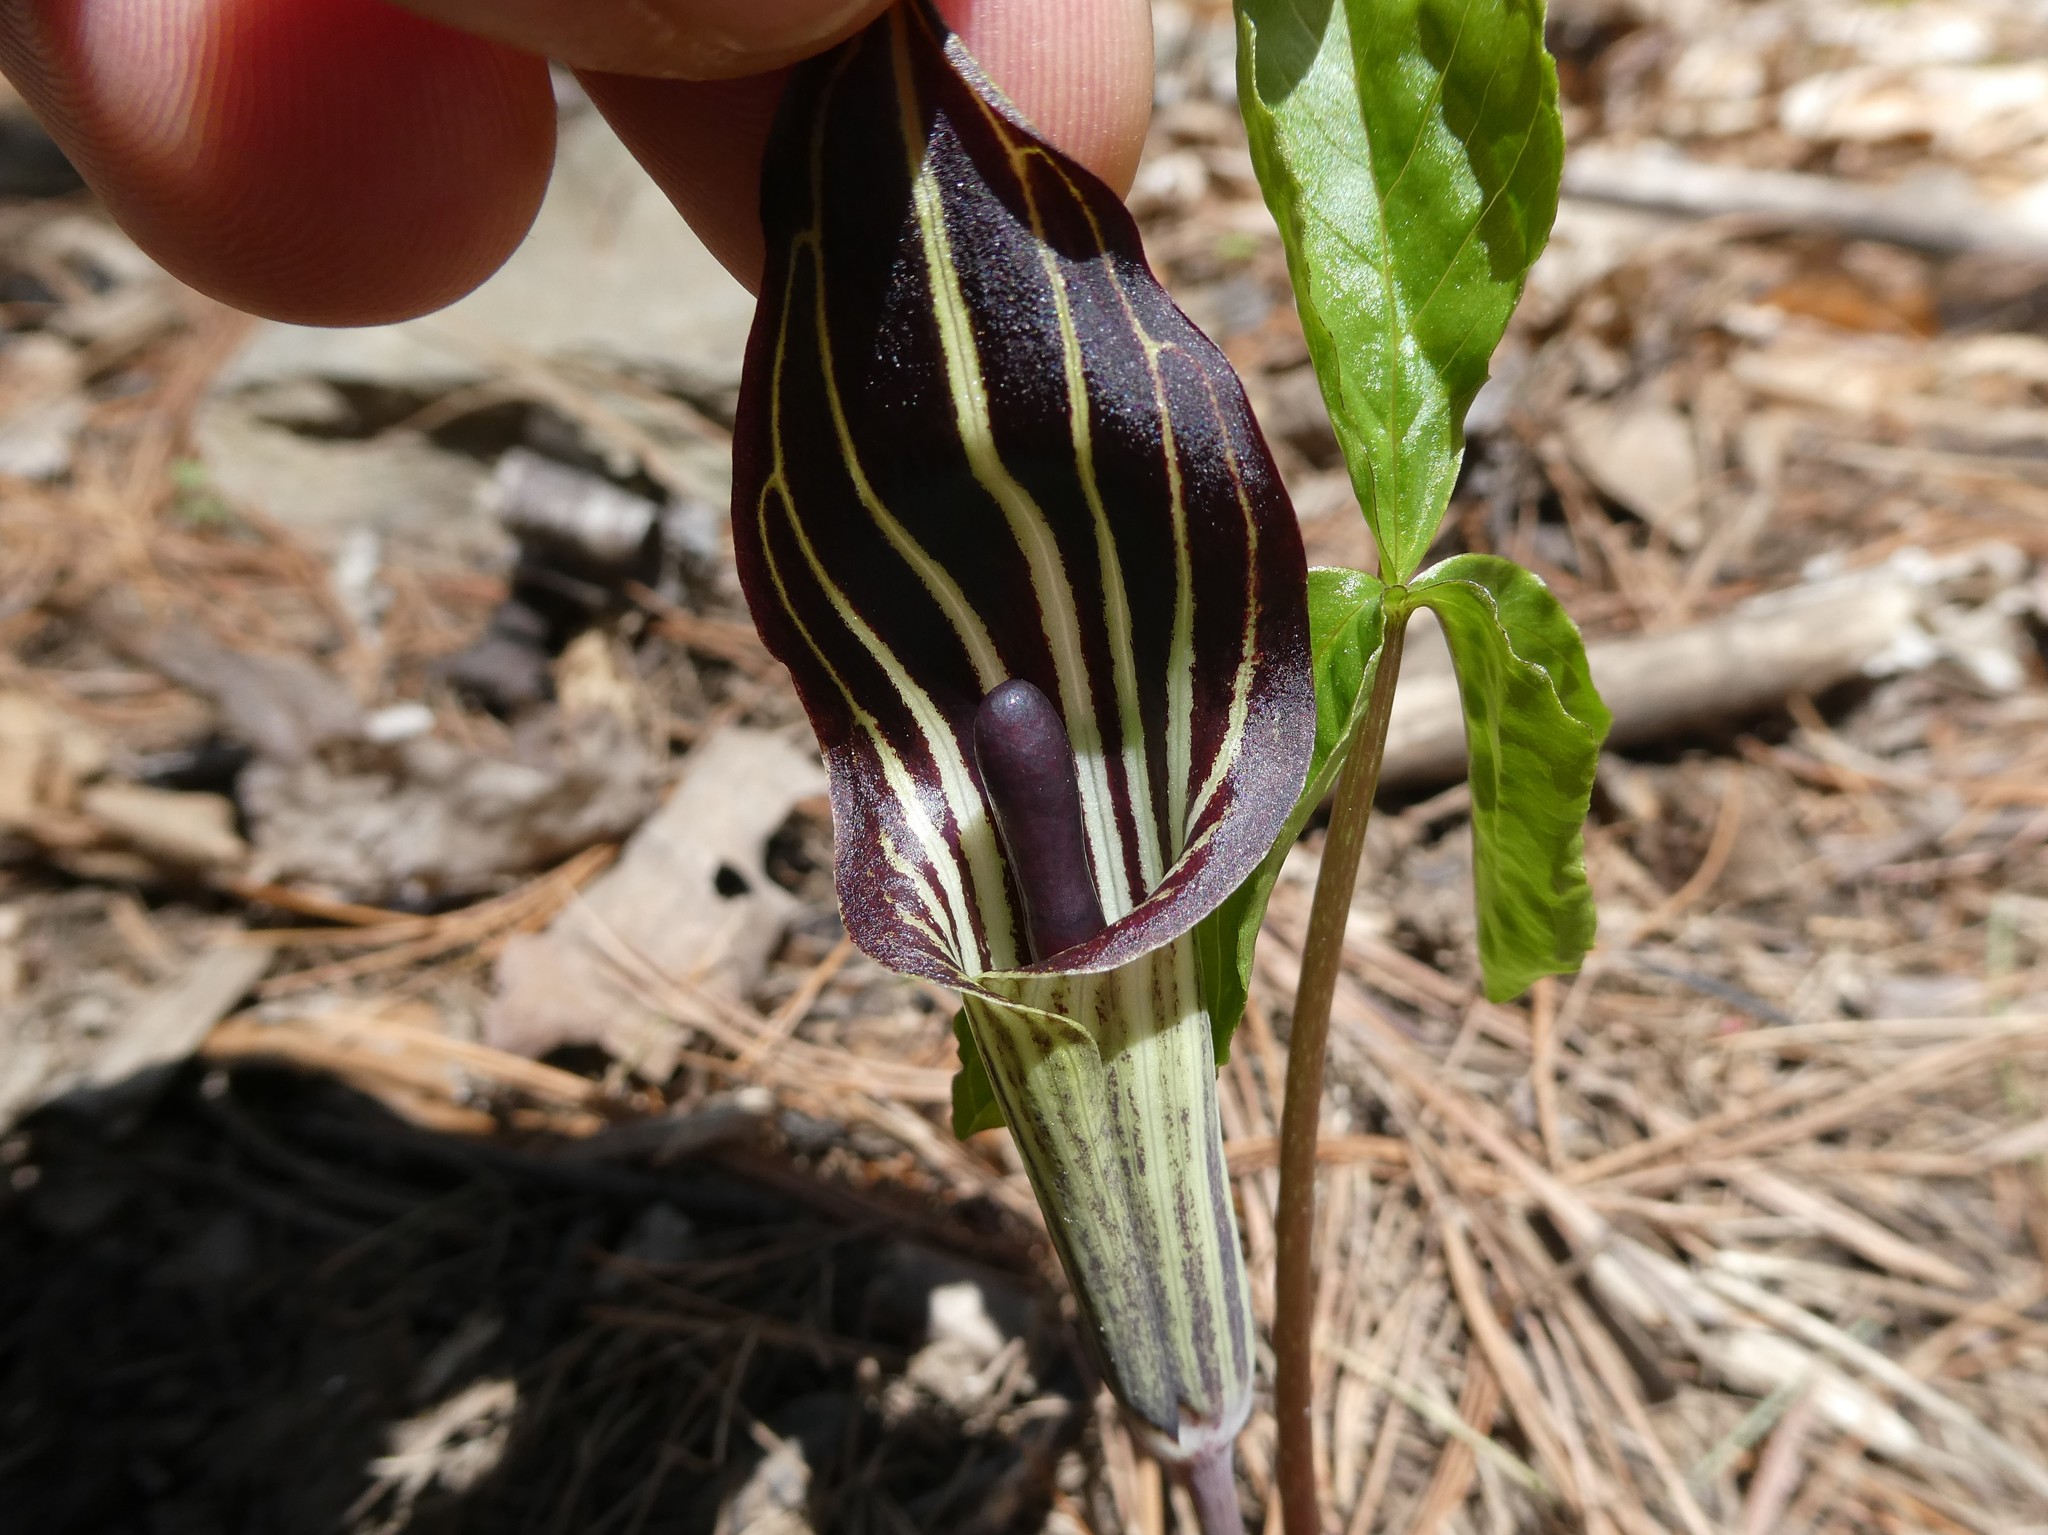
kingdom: Plantae
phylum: Tracheophyta
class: Liliopsida
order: Alismatales
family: Araceae
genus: Arisaema
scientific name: Arisaema triphyllum
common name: Jack-in-the-pulpit
